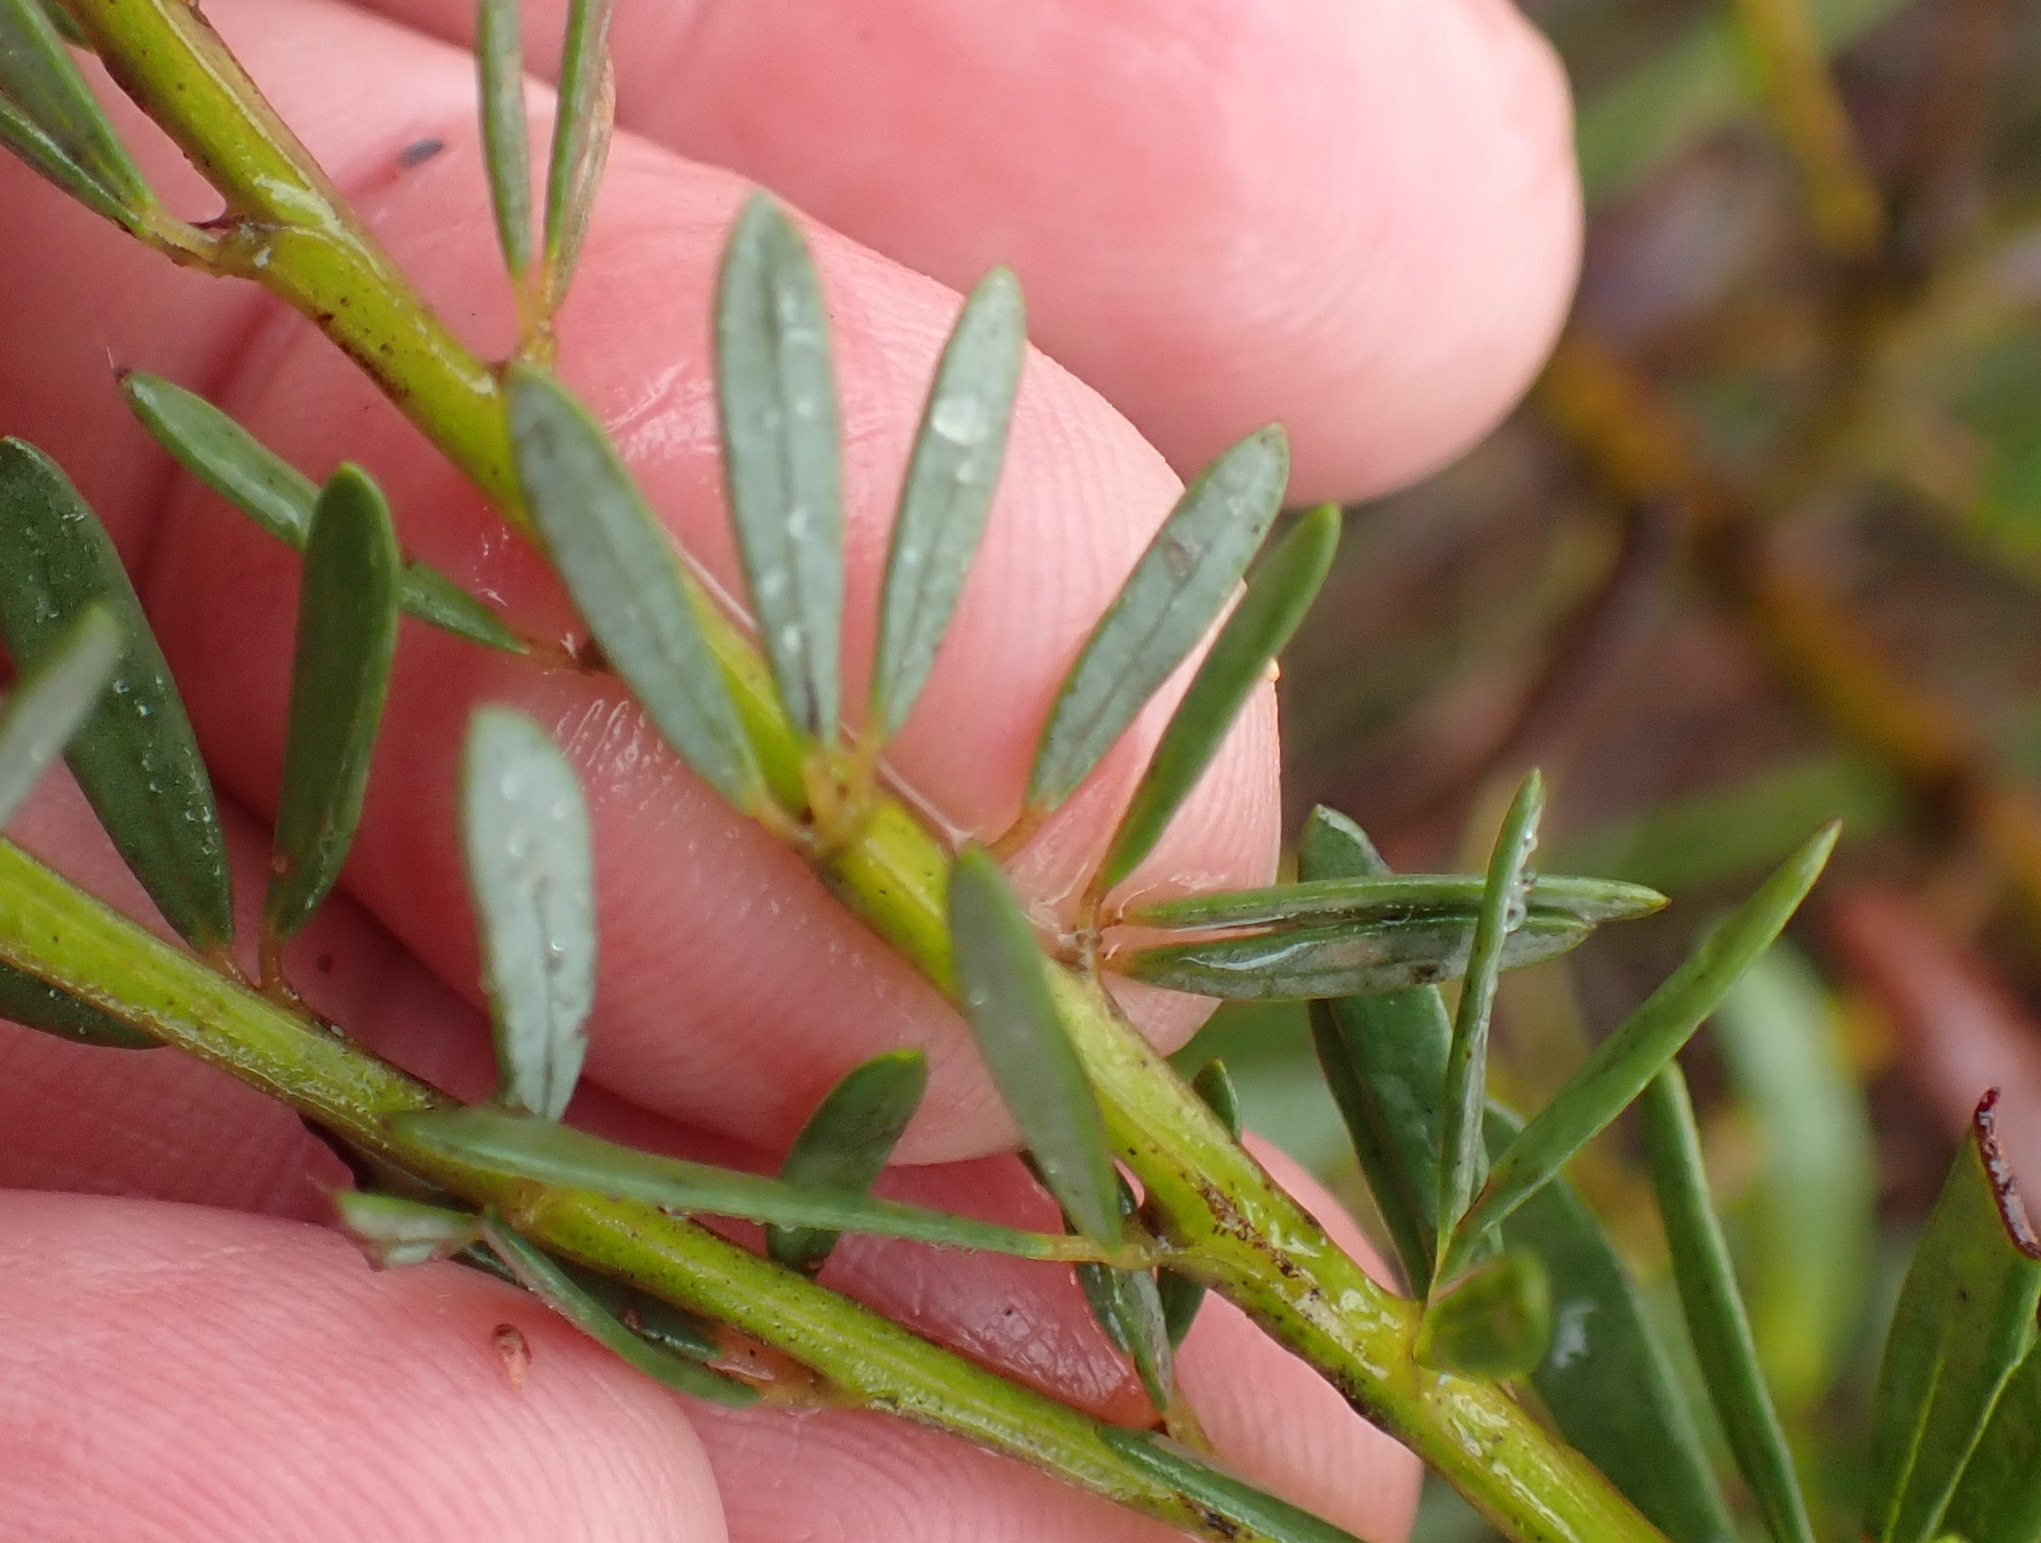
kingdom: Plantae
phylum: Tracheophyta
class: Magnoliopsida
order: Fabales
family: Fabaceae
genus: Cyclopia
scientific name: Cyclopia subternata
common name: Honeybush tea
